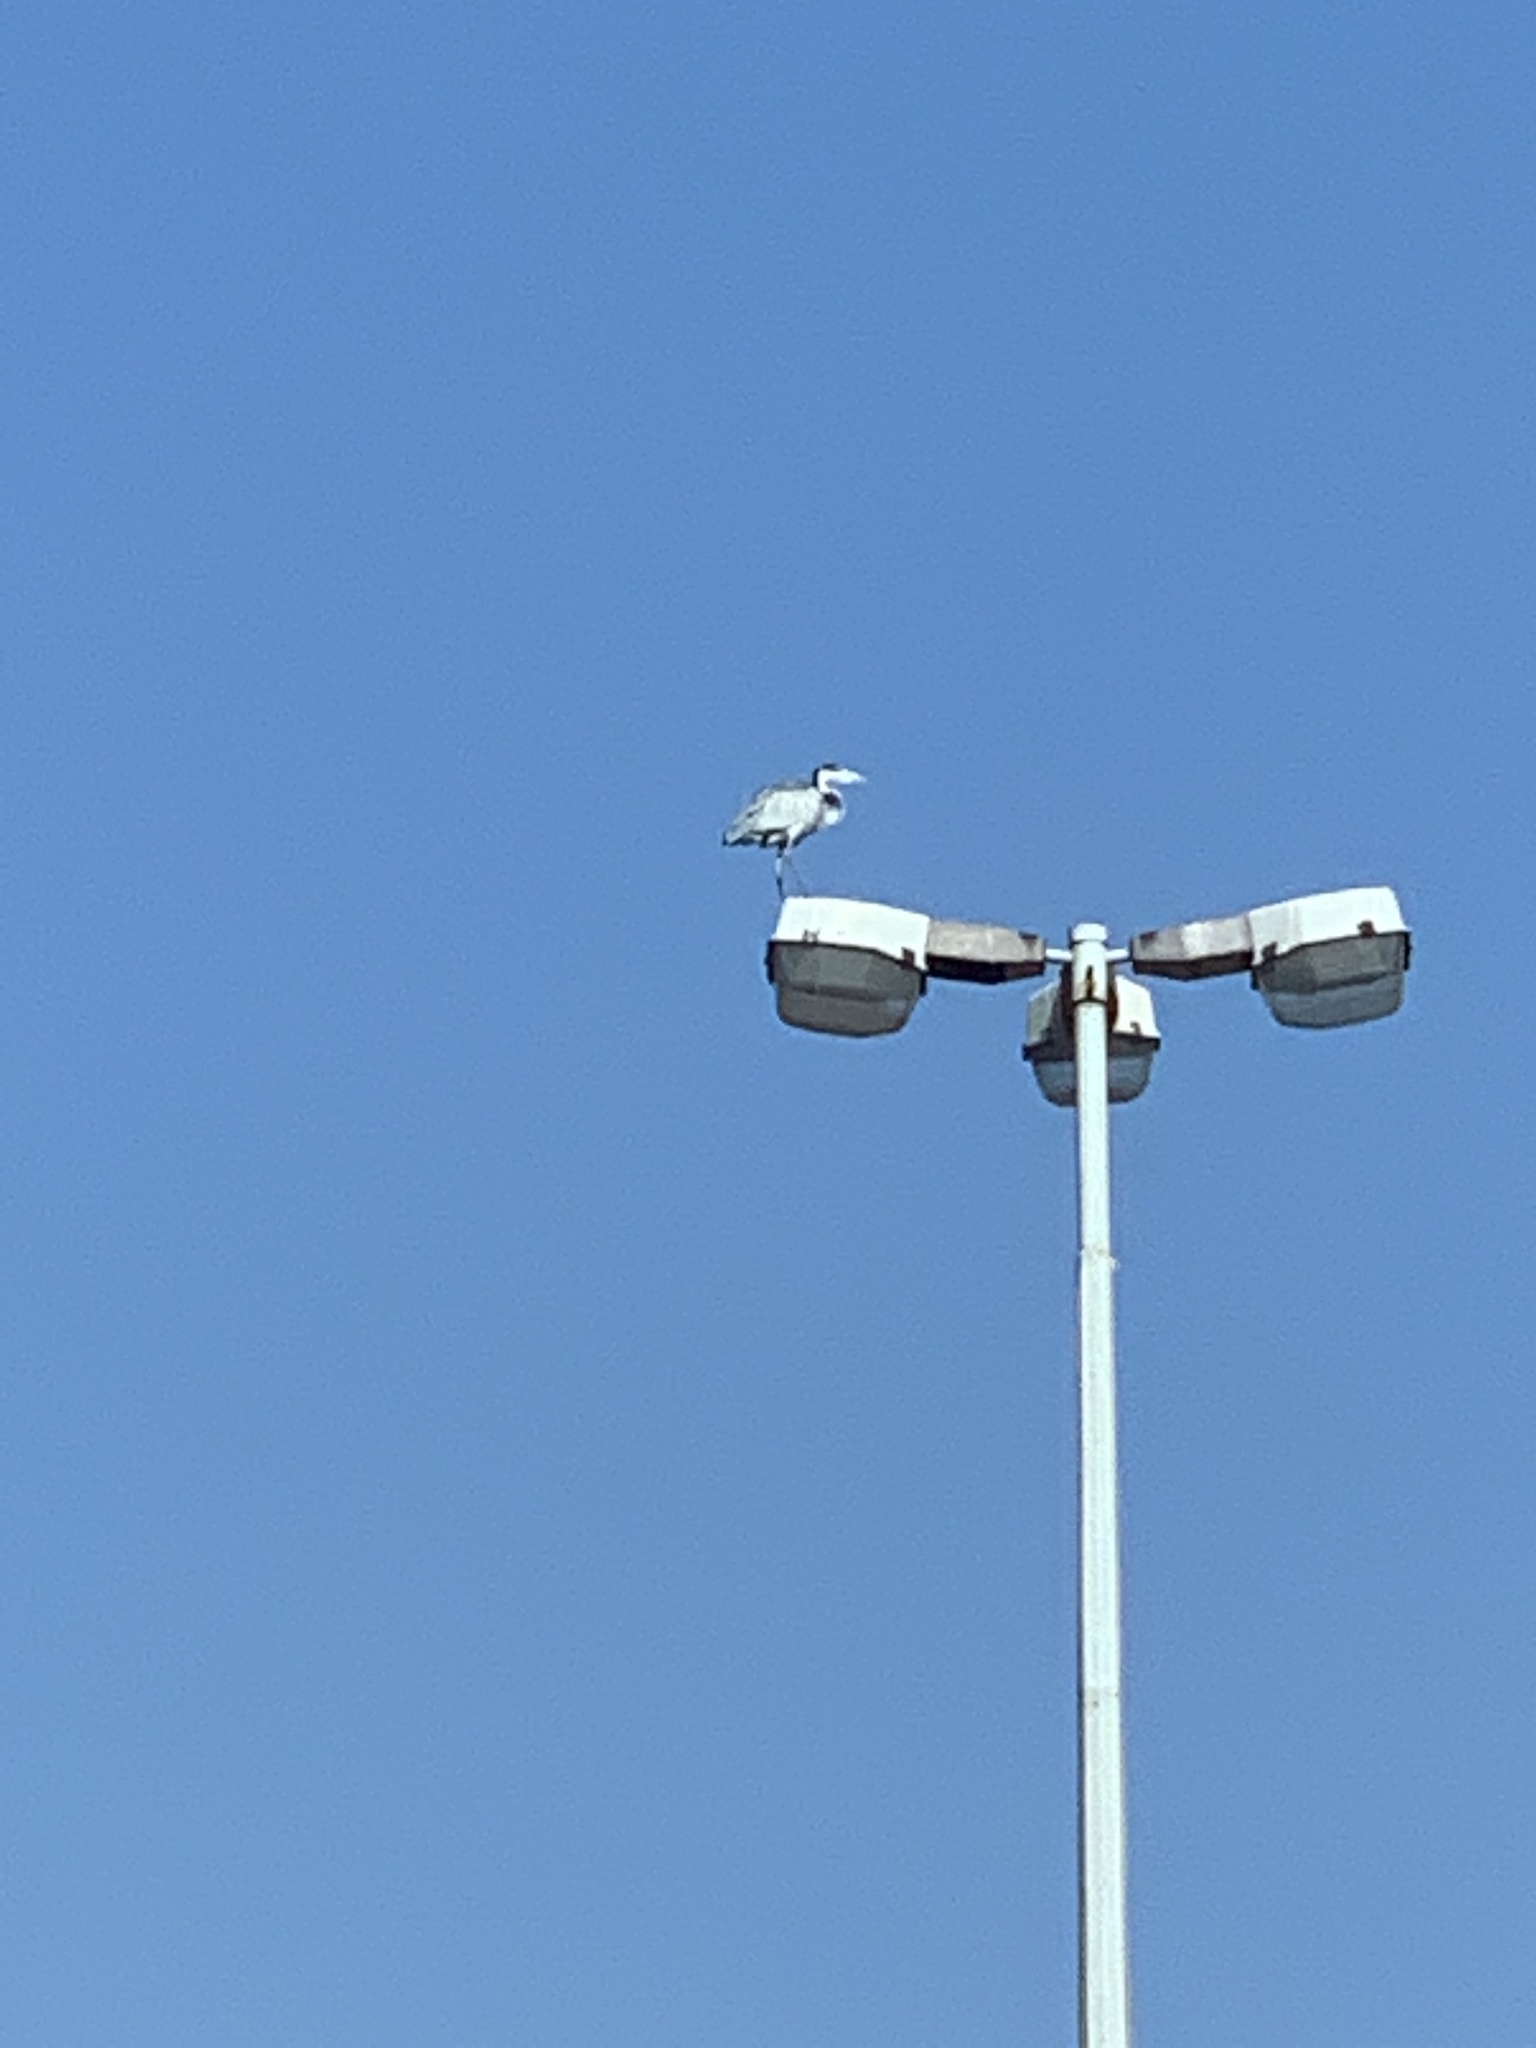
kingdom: Animalia
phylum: Chordata
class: Aves
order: Pelecaniformes
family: Ardeidae
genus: Ardea
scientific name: Ardea melanocephala
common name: Black-headed heron
